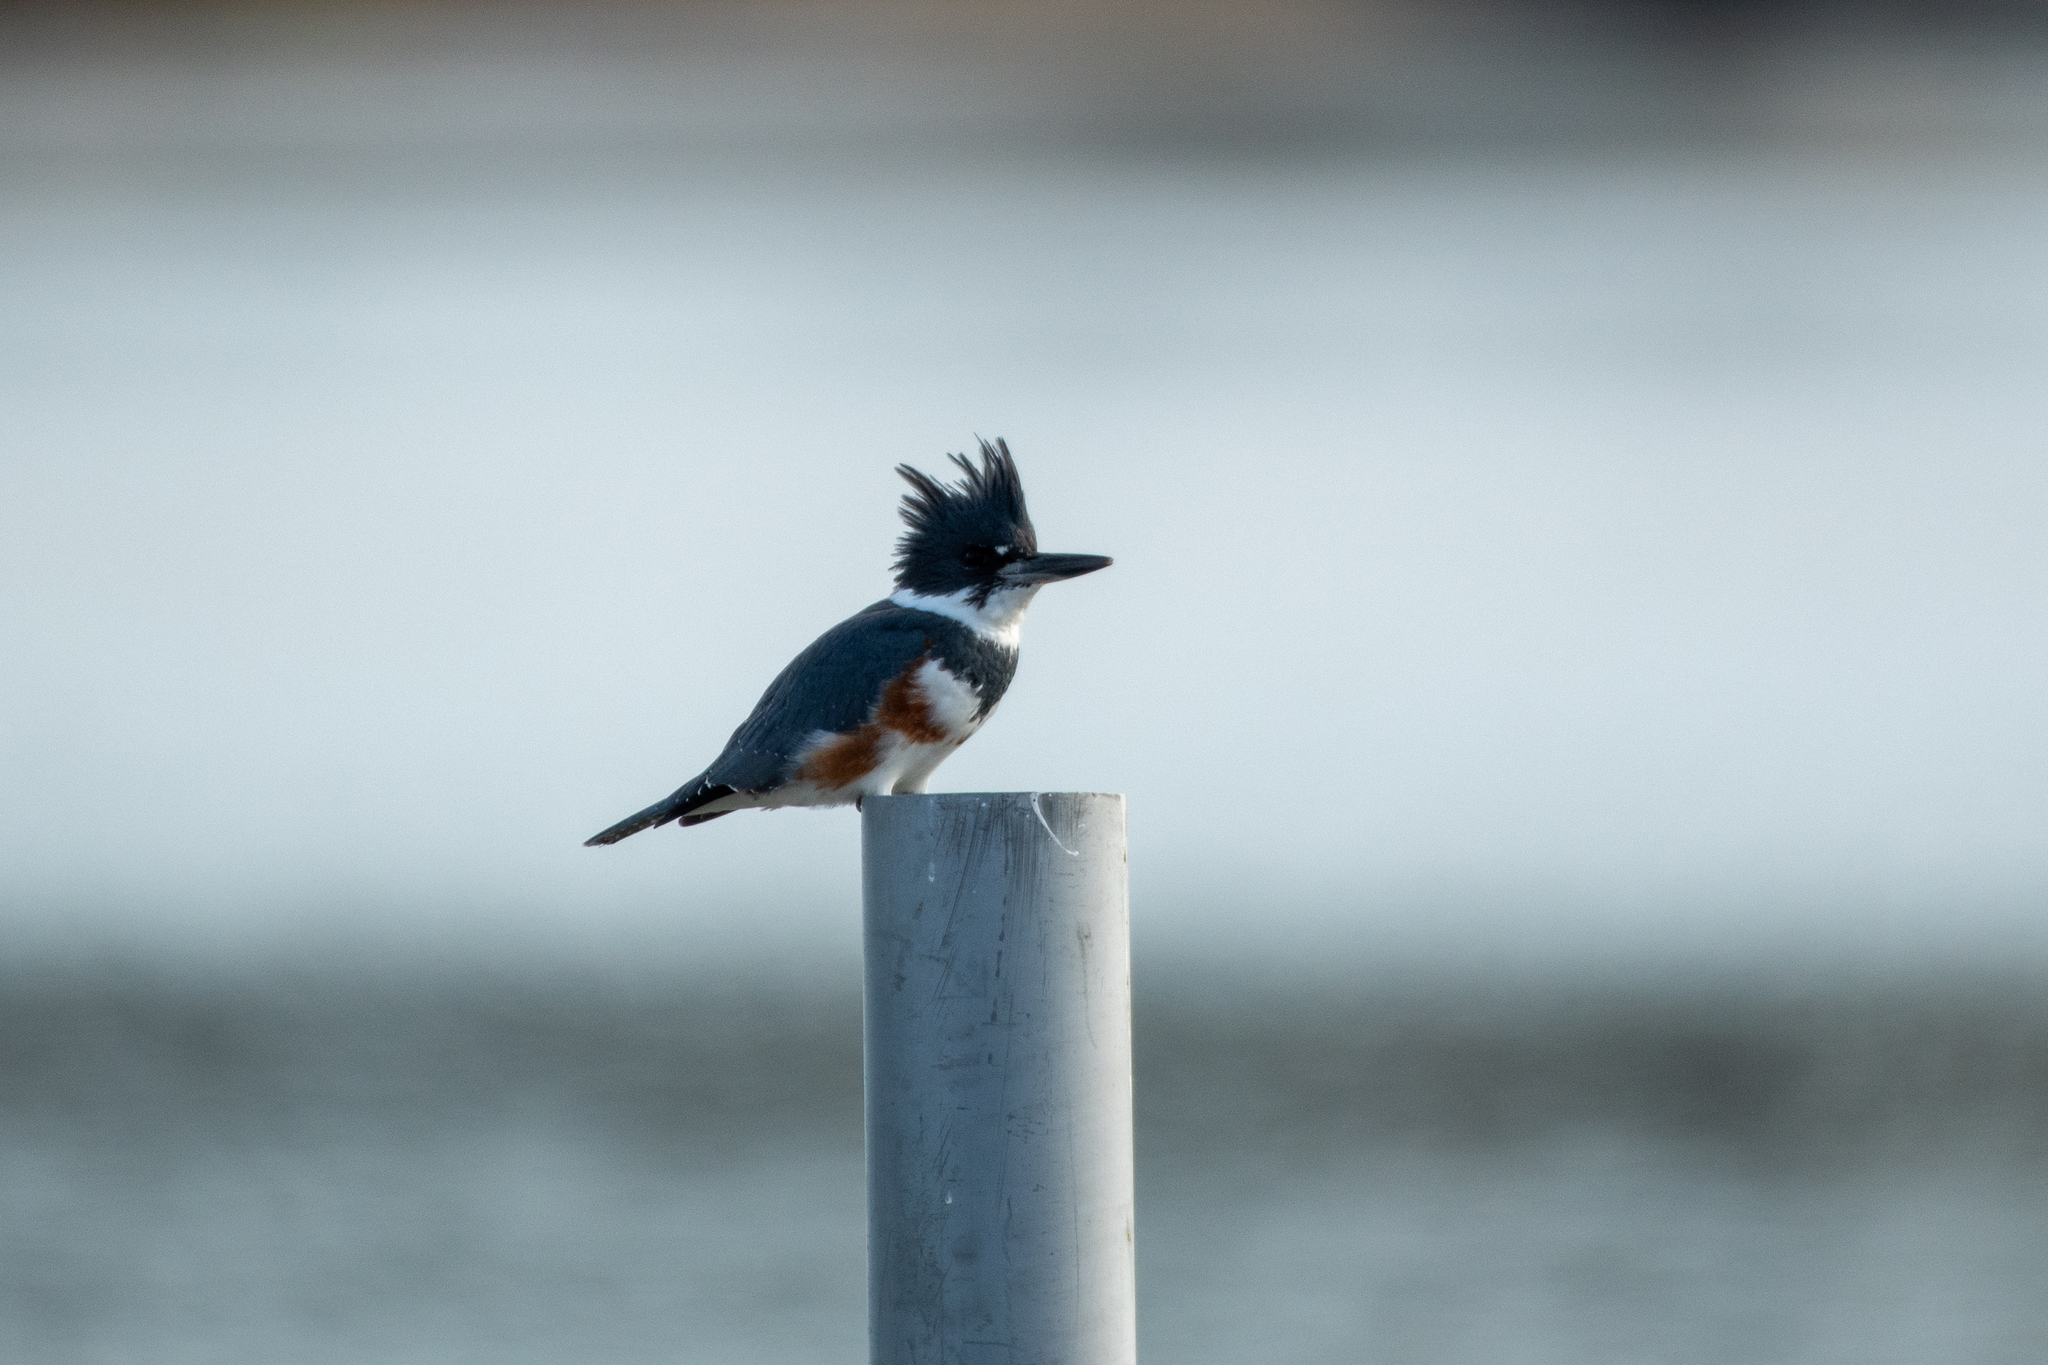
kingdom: Animalia
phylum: Chordata
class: Aves
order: Coraciiformes
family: Alcedinidae
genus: Megaceryle
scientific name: Megaceryle alcyon
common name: Belted kingfisher
